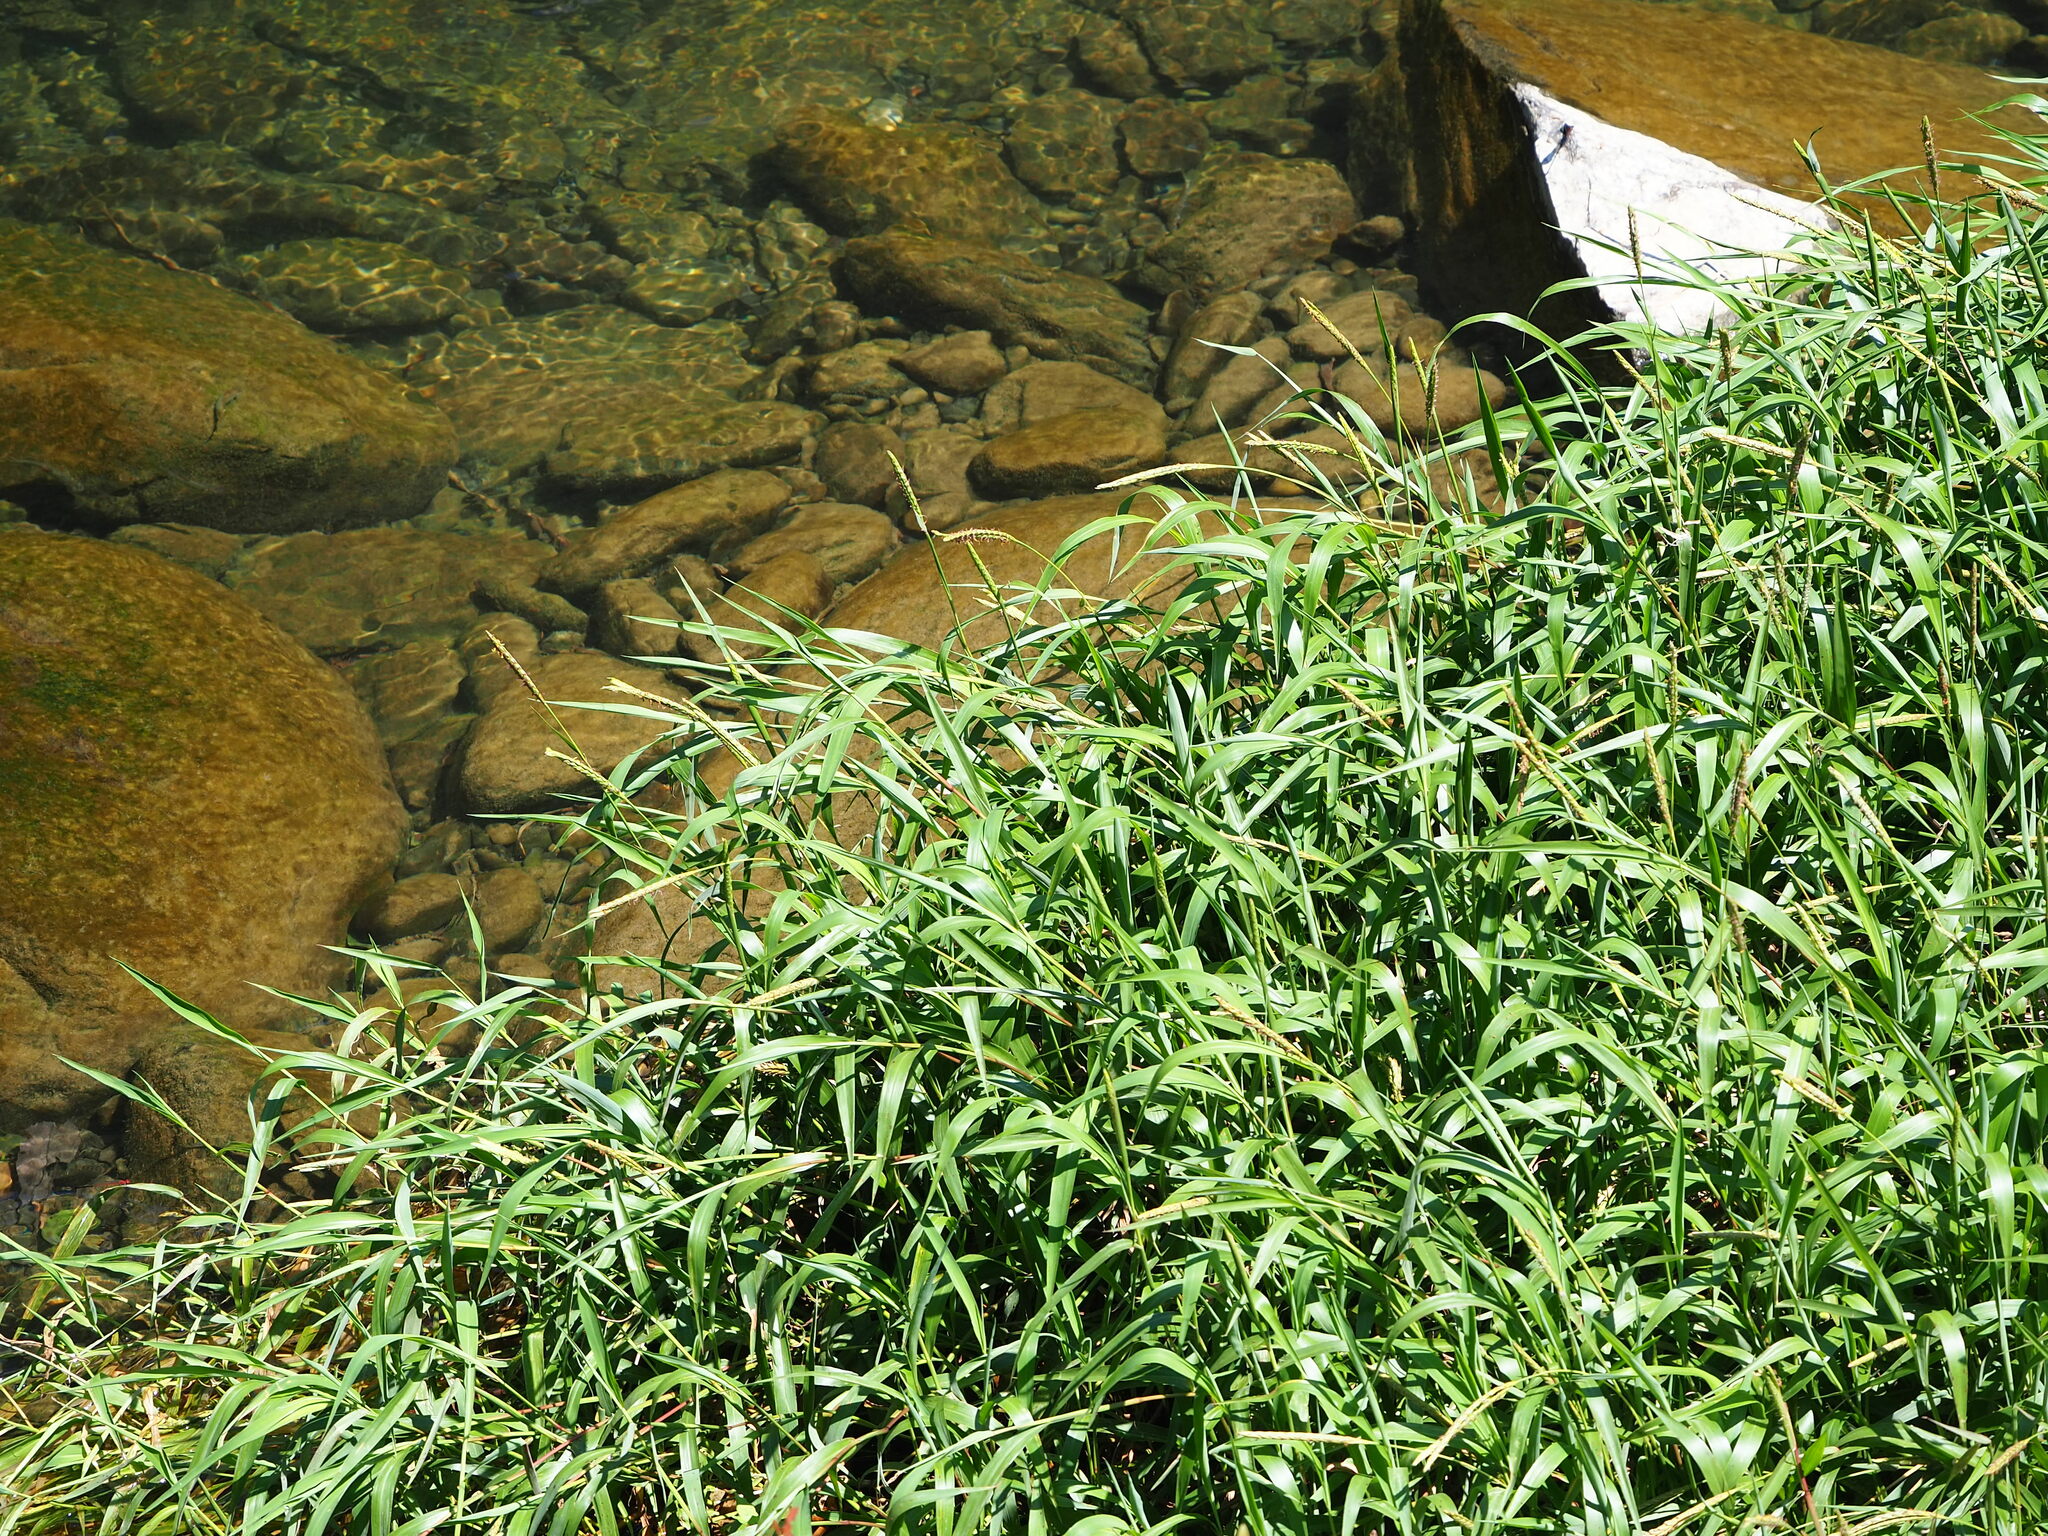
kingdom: Plantae
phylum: Tracheophyta
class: Liliopsida
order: Poales
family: Poaceae
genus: Ischaemum
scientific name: Ischaemum aristatum
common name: Toco grass
